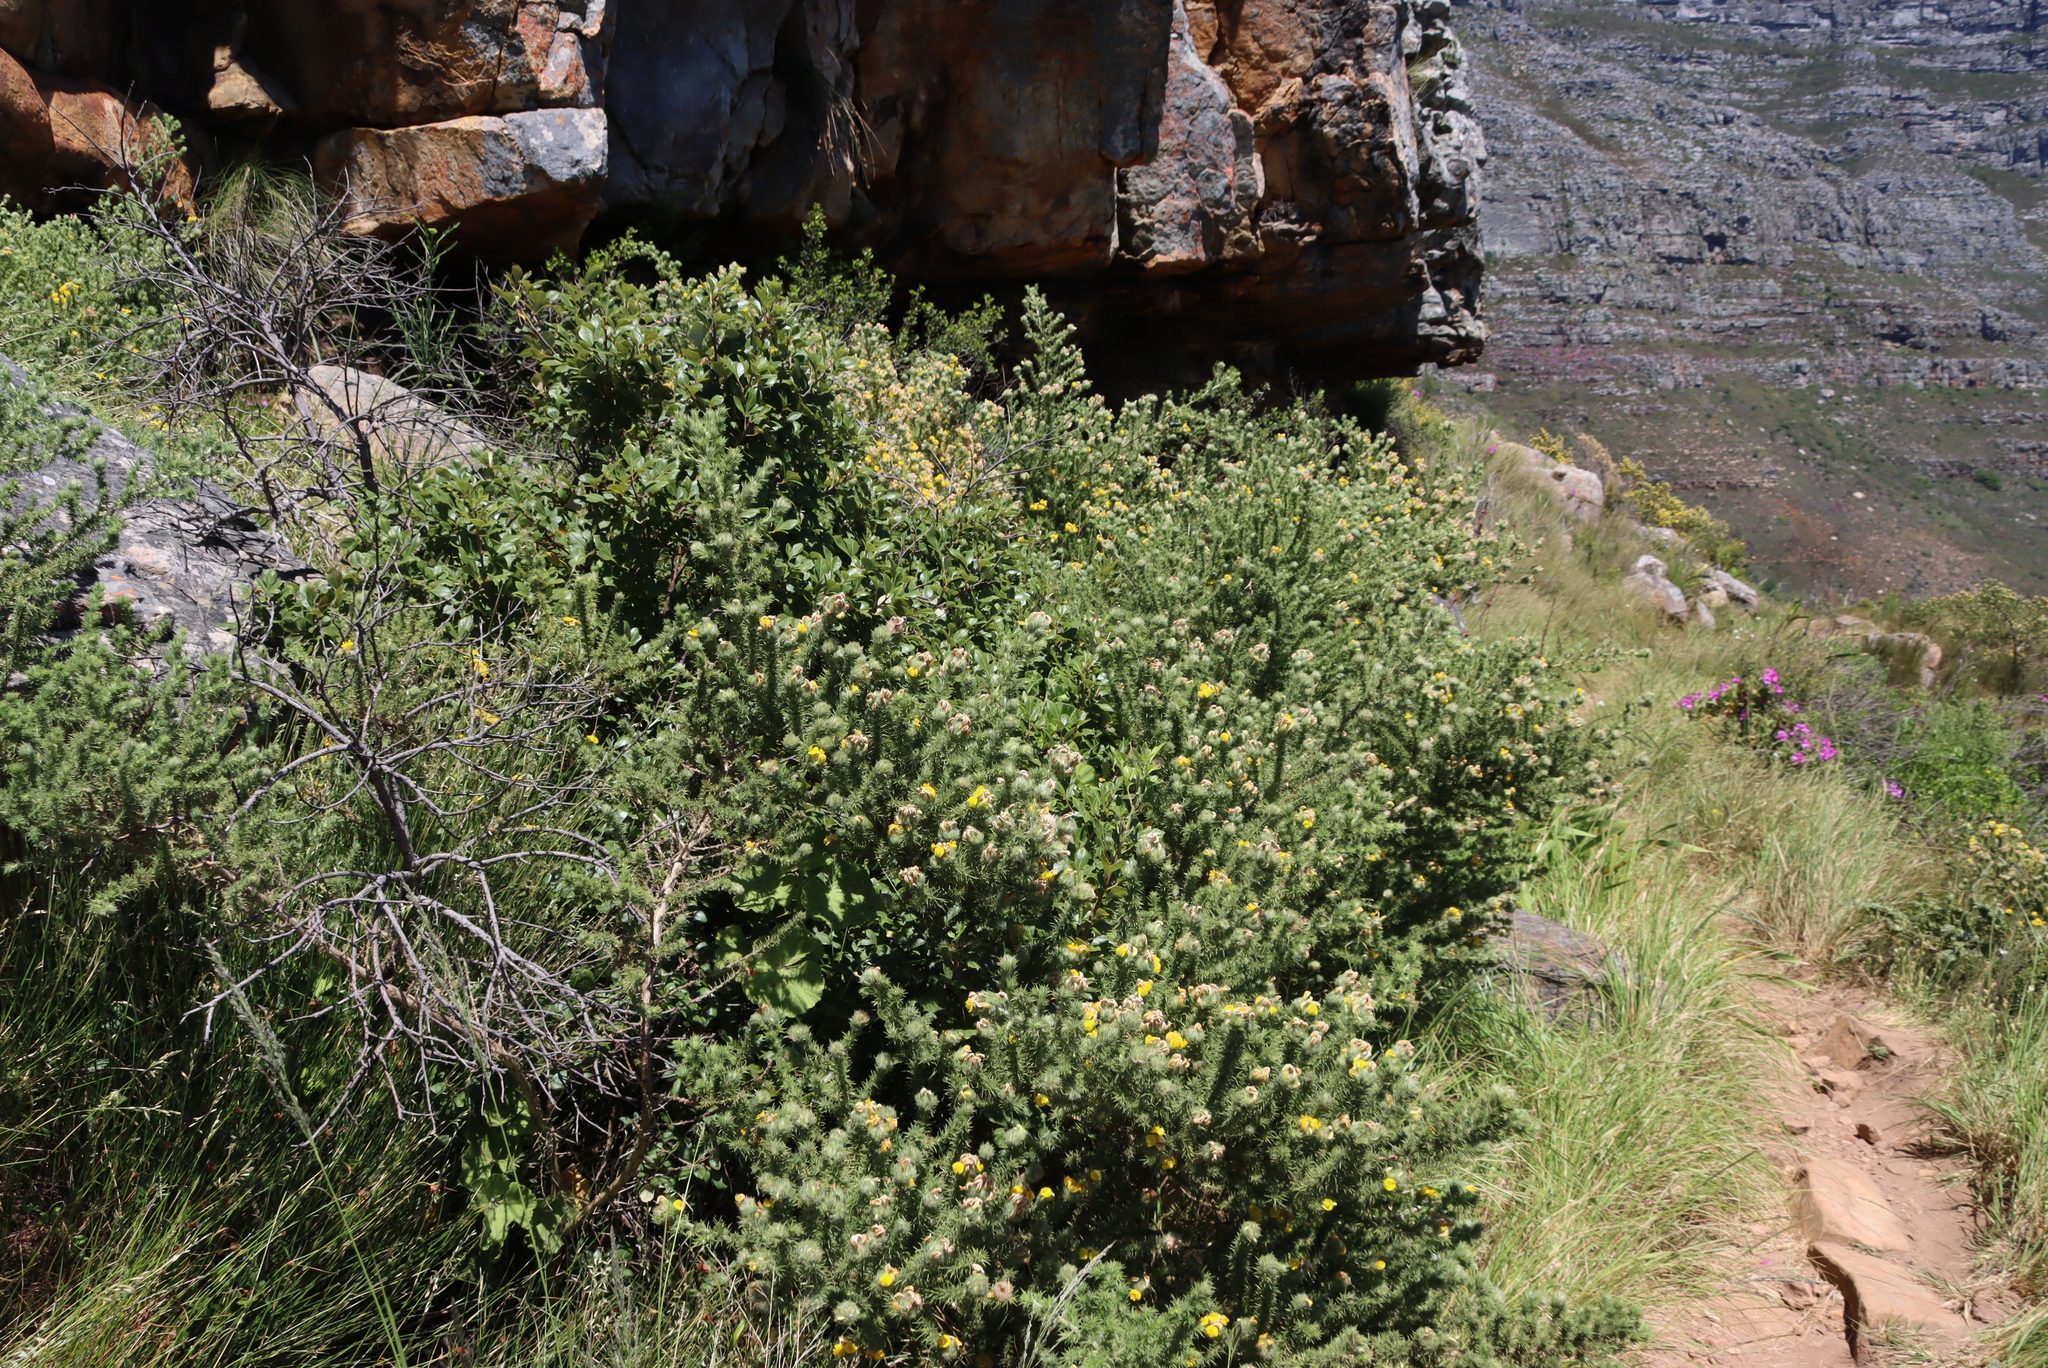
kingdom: Plantae
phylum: Tracheophyta
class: Magnoliopsida
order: Fabales
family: Fabaceae
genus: Aspalathus
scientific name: Aspalathus chenopoda
